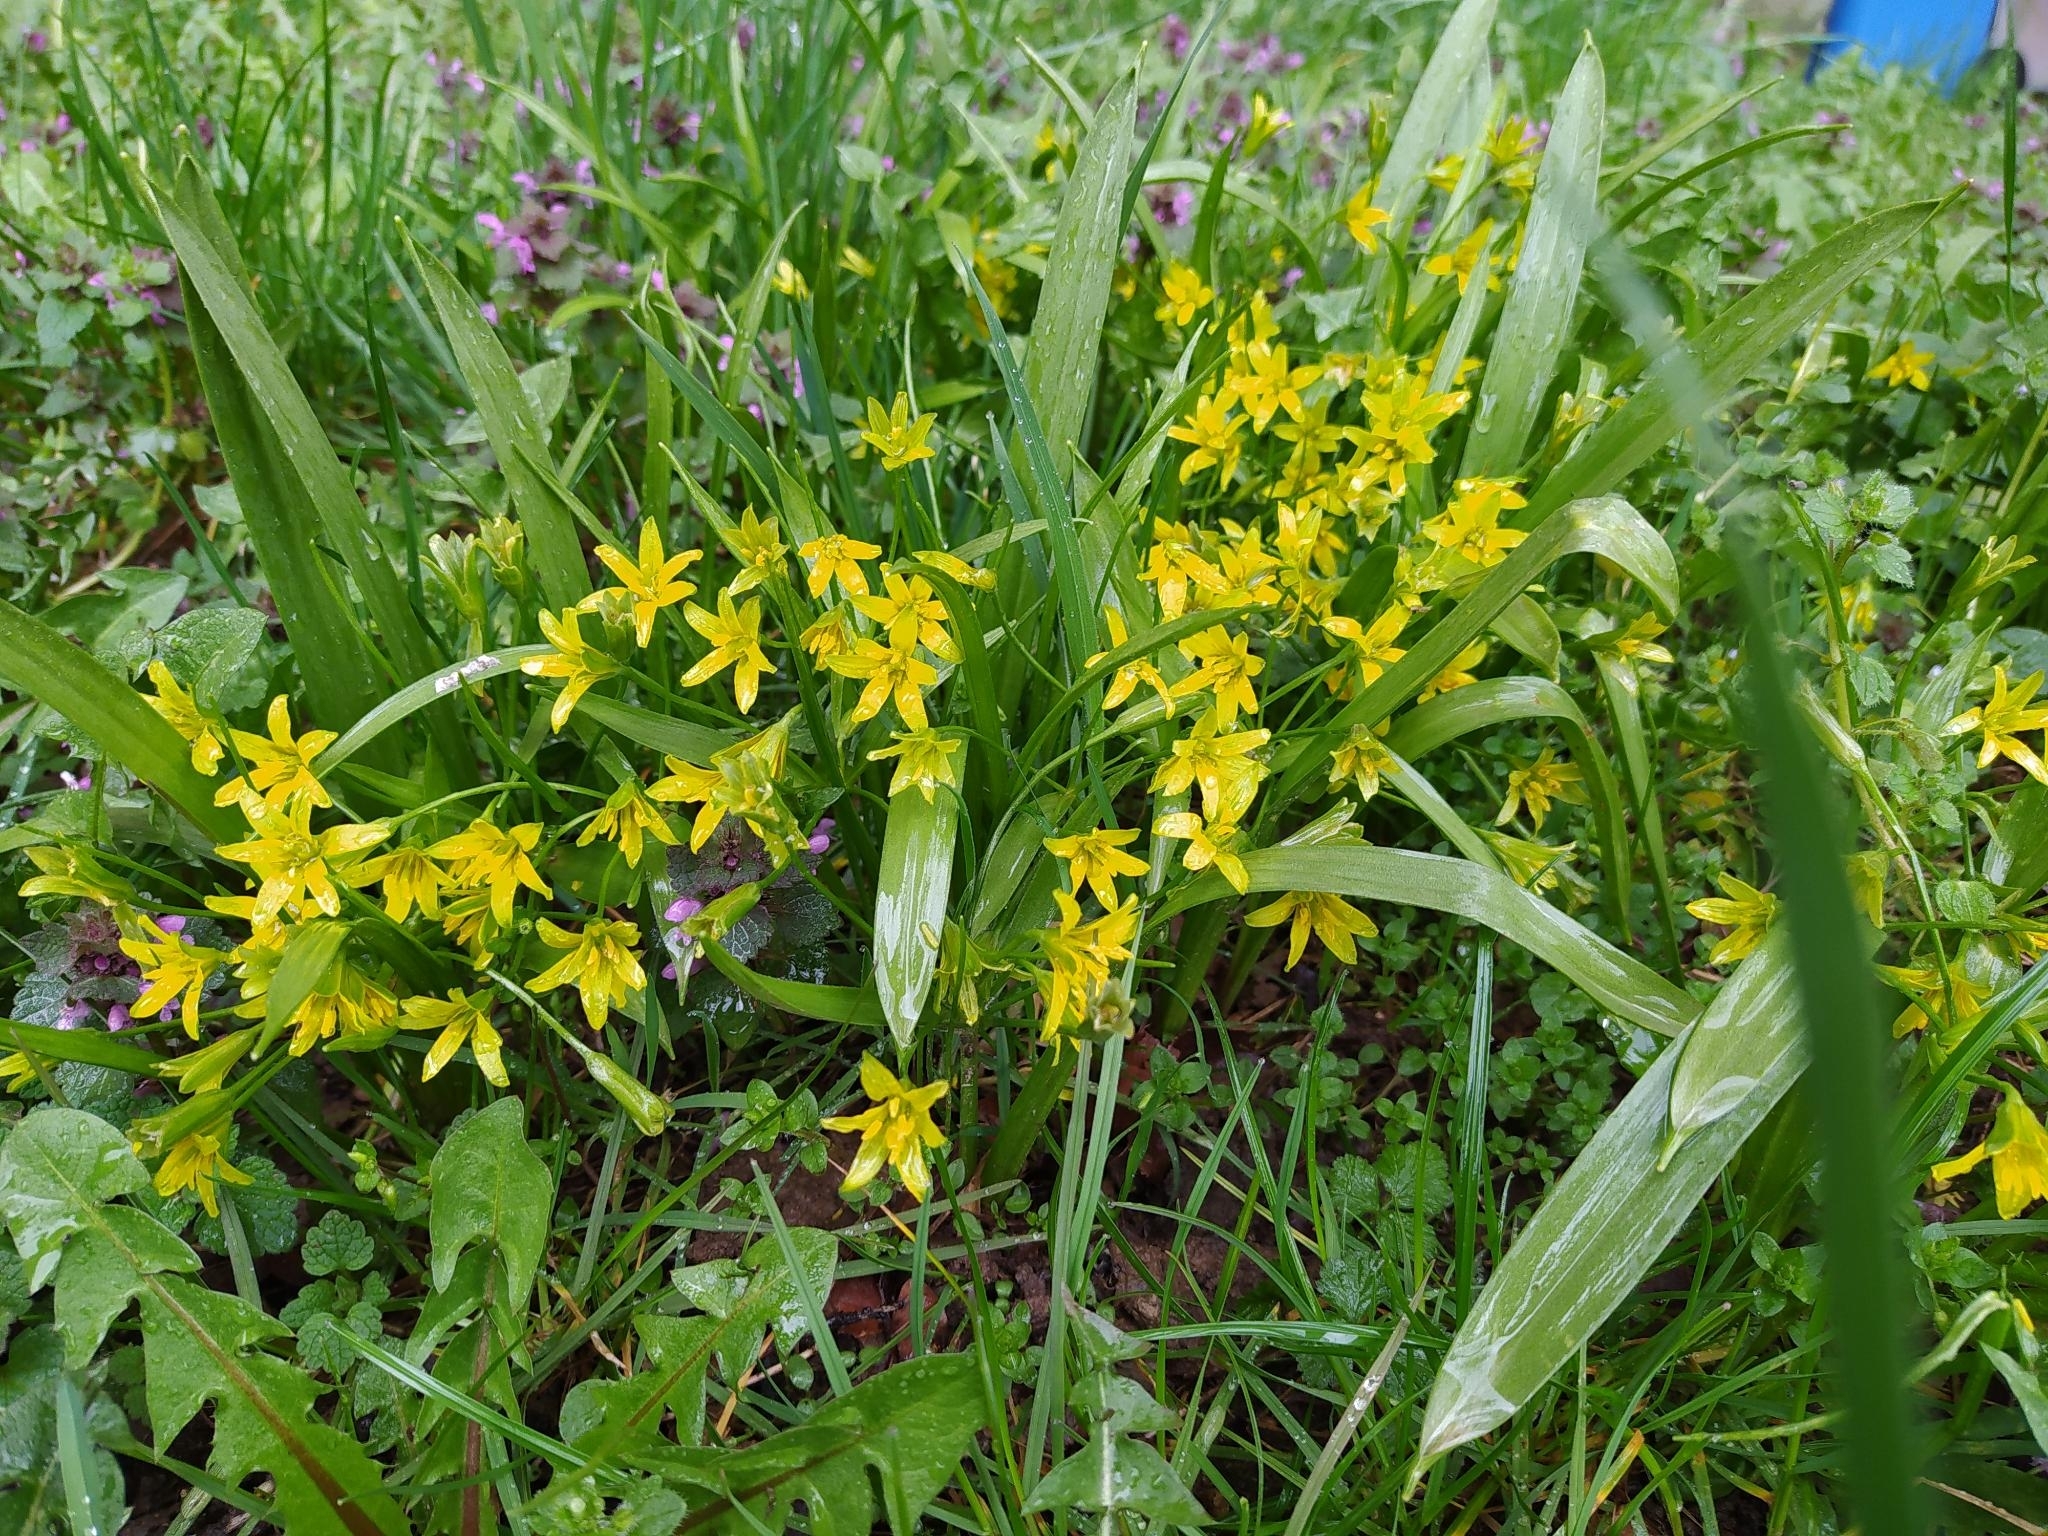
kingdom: Plantae
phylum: Tracheophyta
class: Liliopsida
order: Liliales
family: Liliaceae
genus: Gagea
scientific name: Gagea lutea
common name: Yellow star-of-bethlehem
